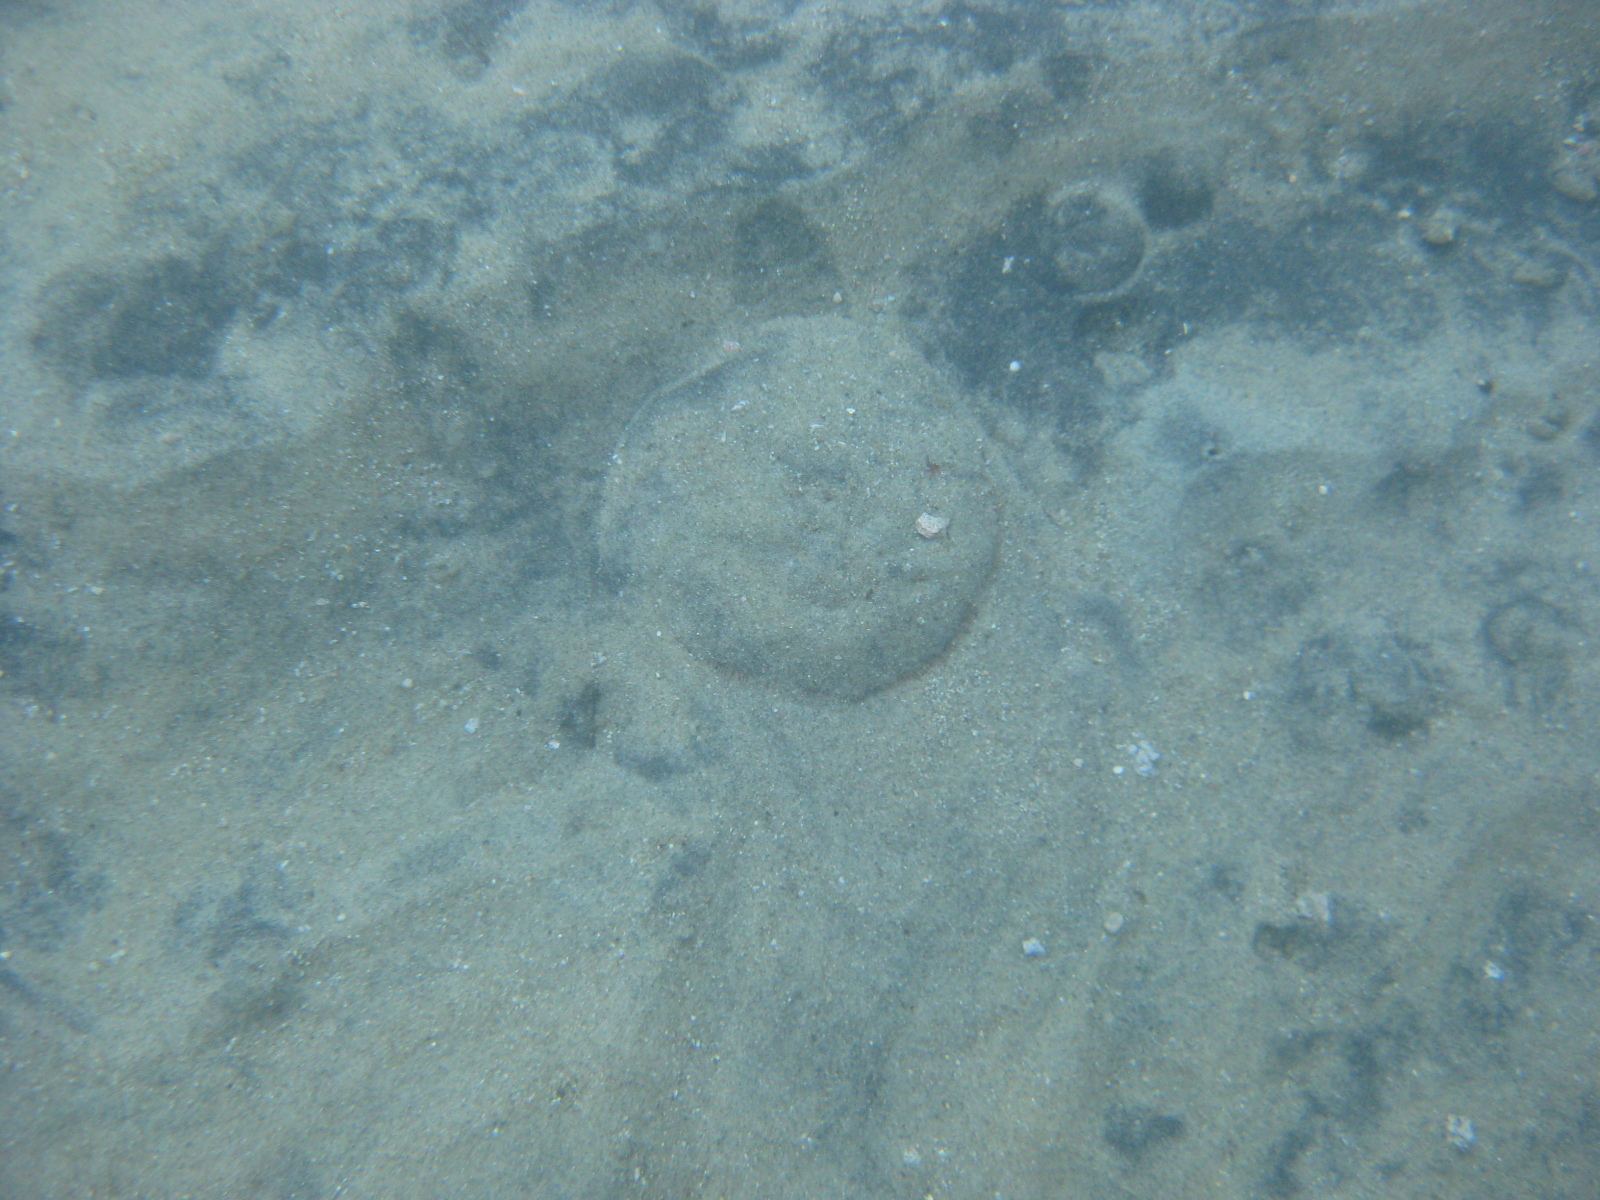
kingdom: Animalia
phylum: Echinodermata
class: Echinoidea
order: Clypeasteroida
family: Clypeasteridae
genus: Fellaster
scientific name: Fellaster zelandiae
